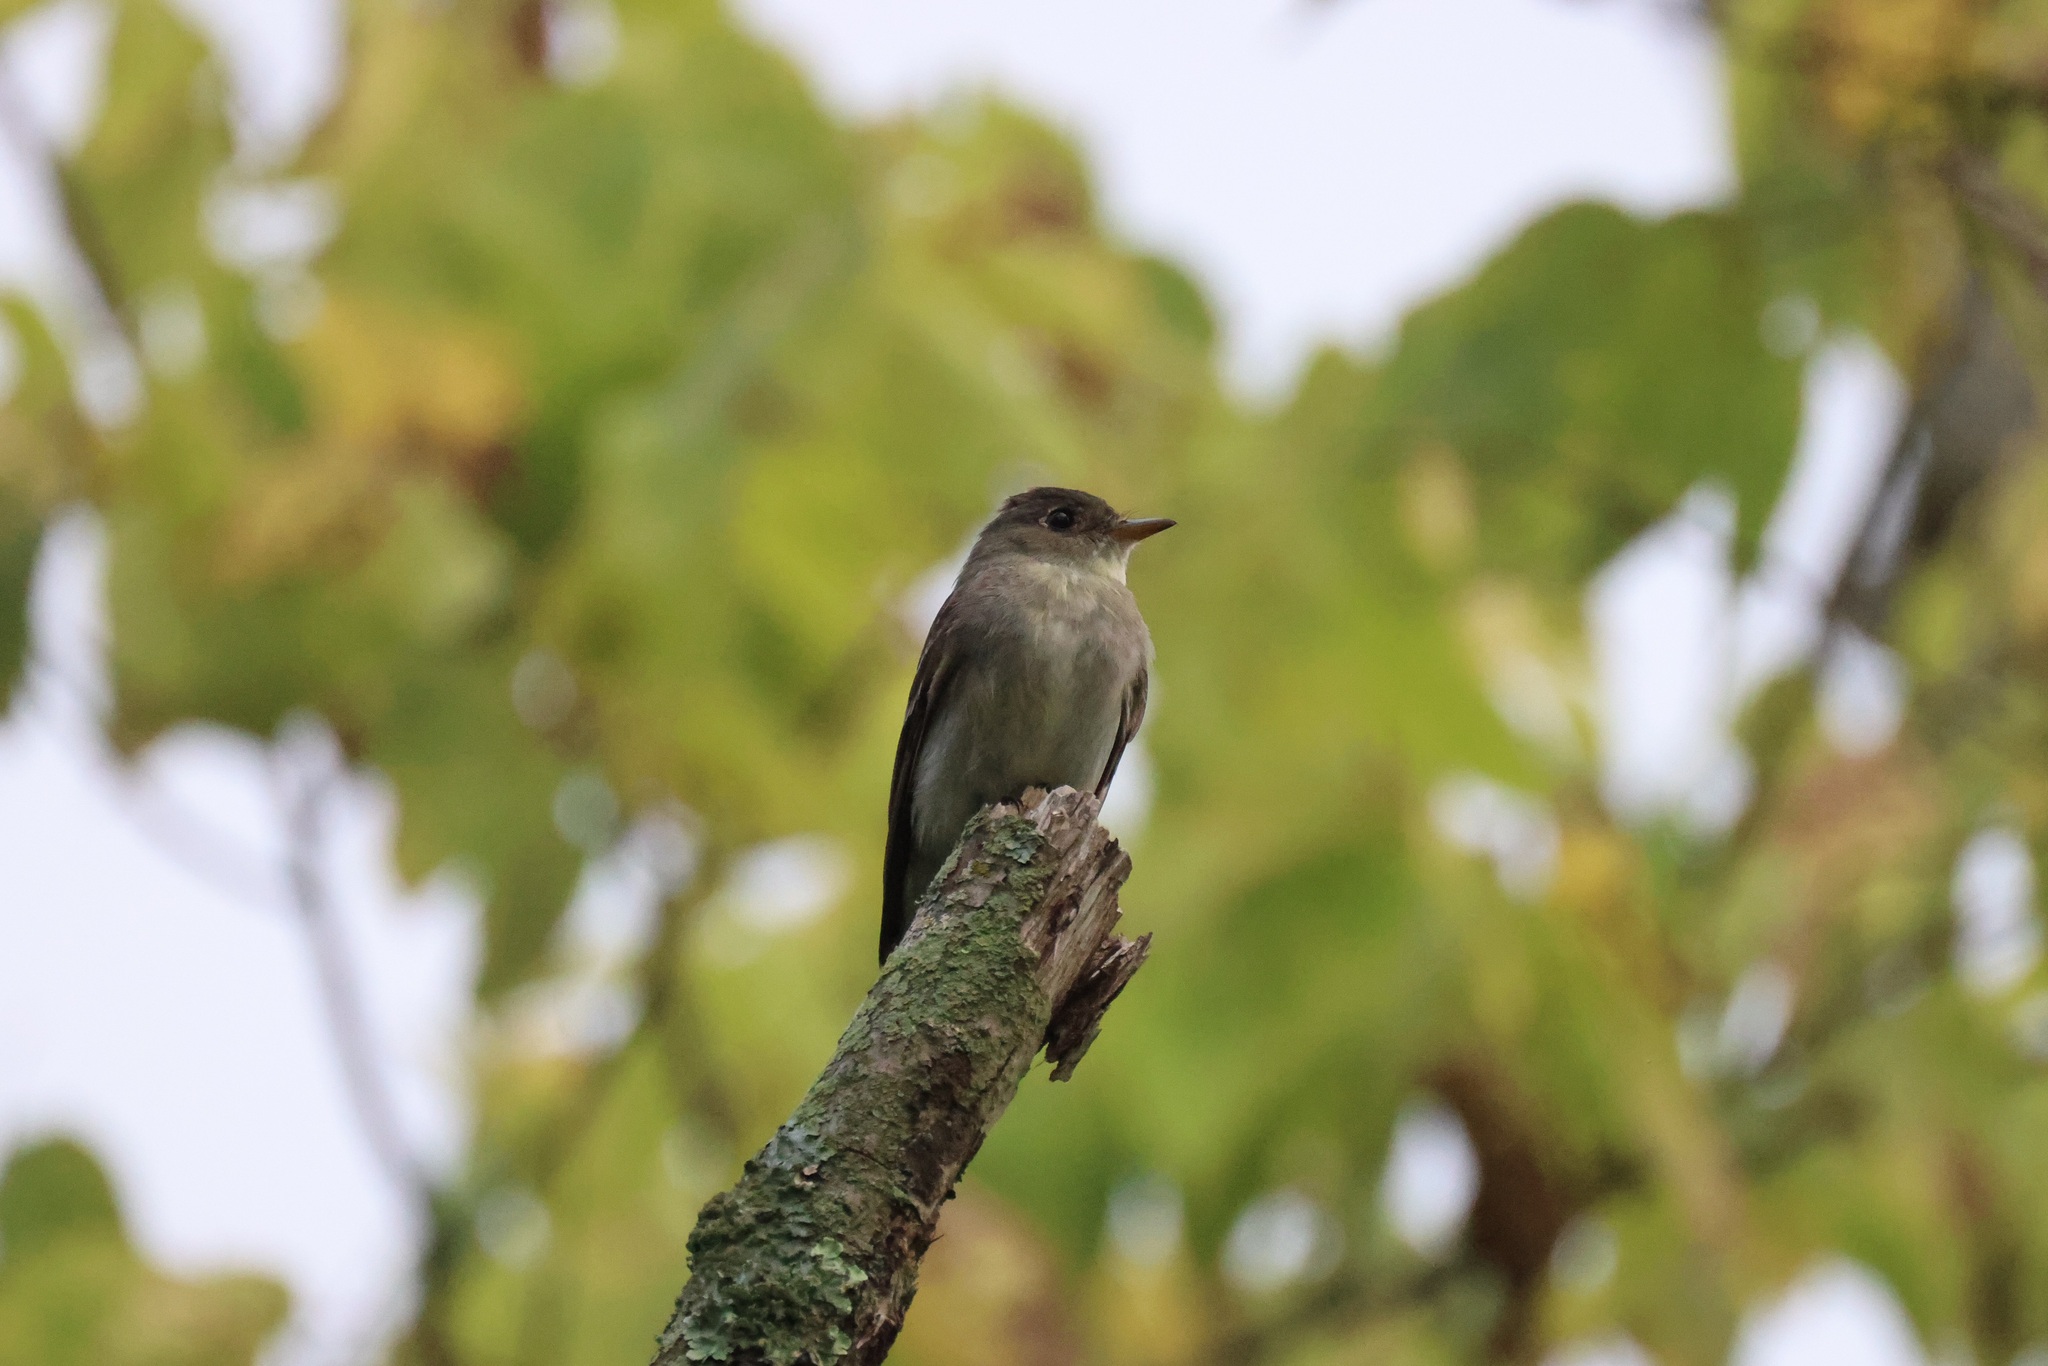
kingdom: Animalia
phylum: Chordata
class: Aves
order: Passeriformes
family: Tyrannidae
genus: Contopus
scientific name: Contopus virens
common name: Eastern wood-pewee
